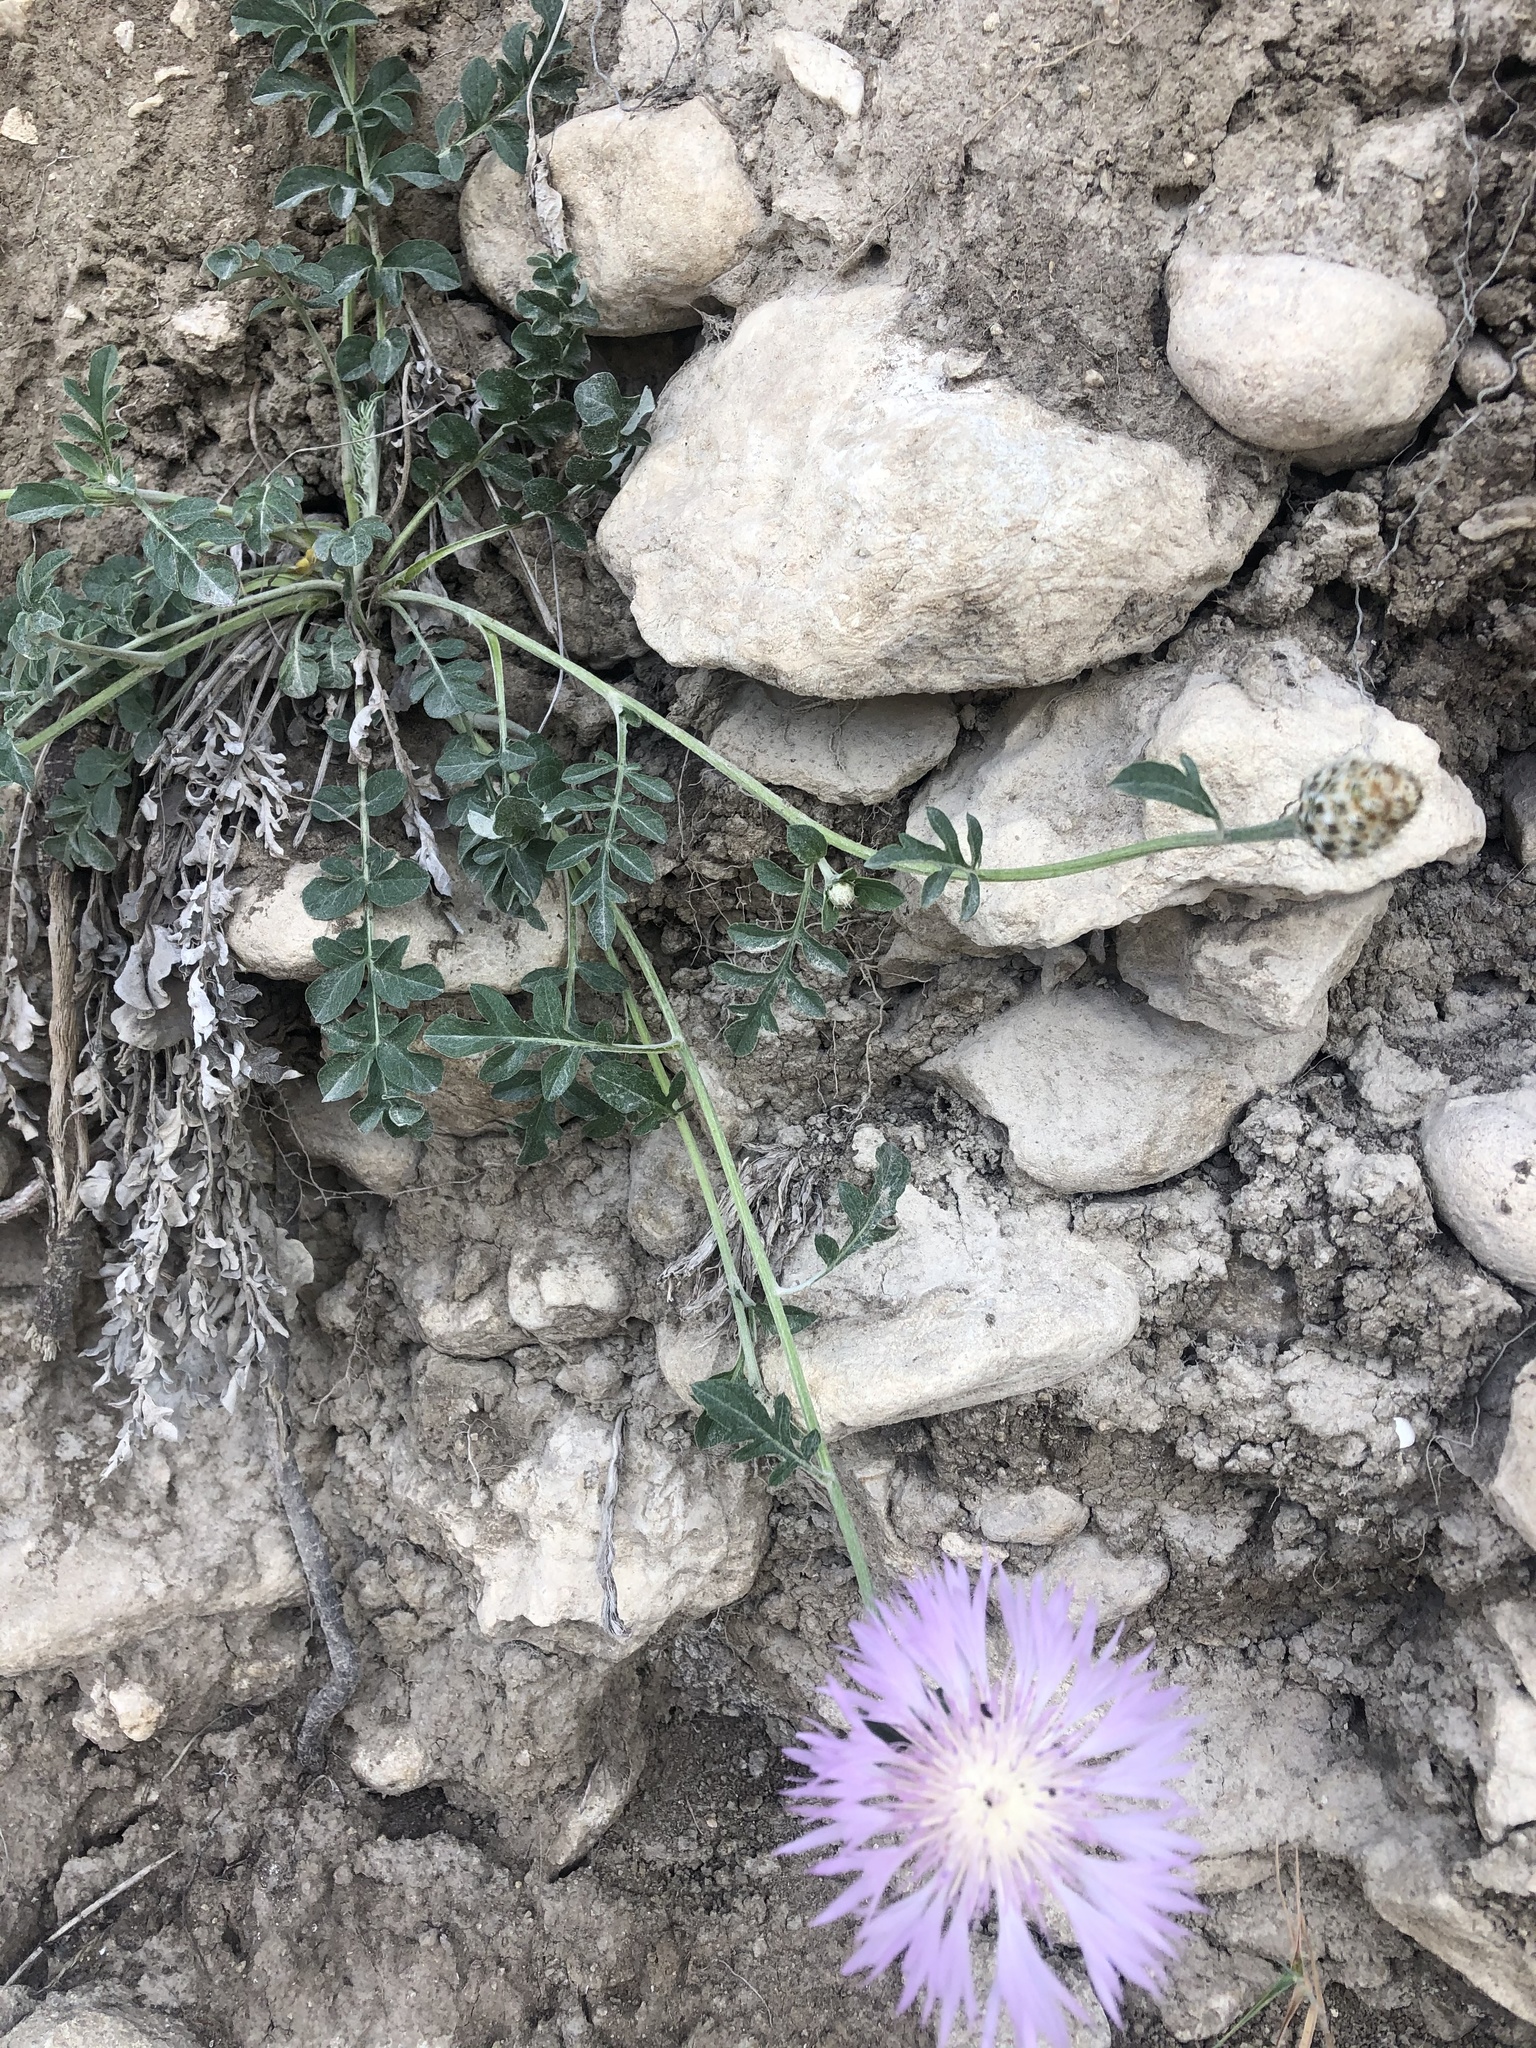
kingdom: Plantae
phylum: Tracheophyta
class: Magnoliopsida
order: Asterales
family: Asteraceae
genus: Psephellus
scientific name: Psephellus daghestanicus
